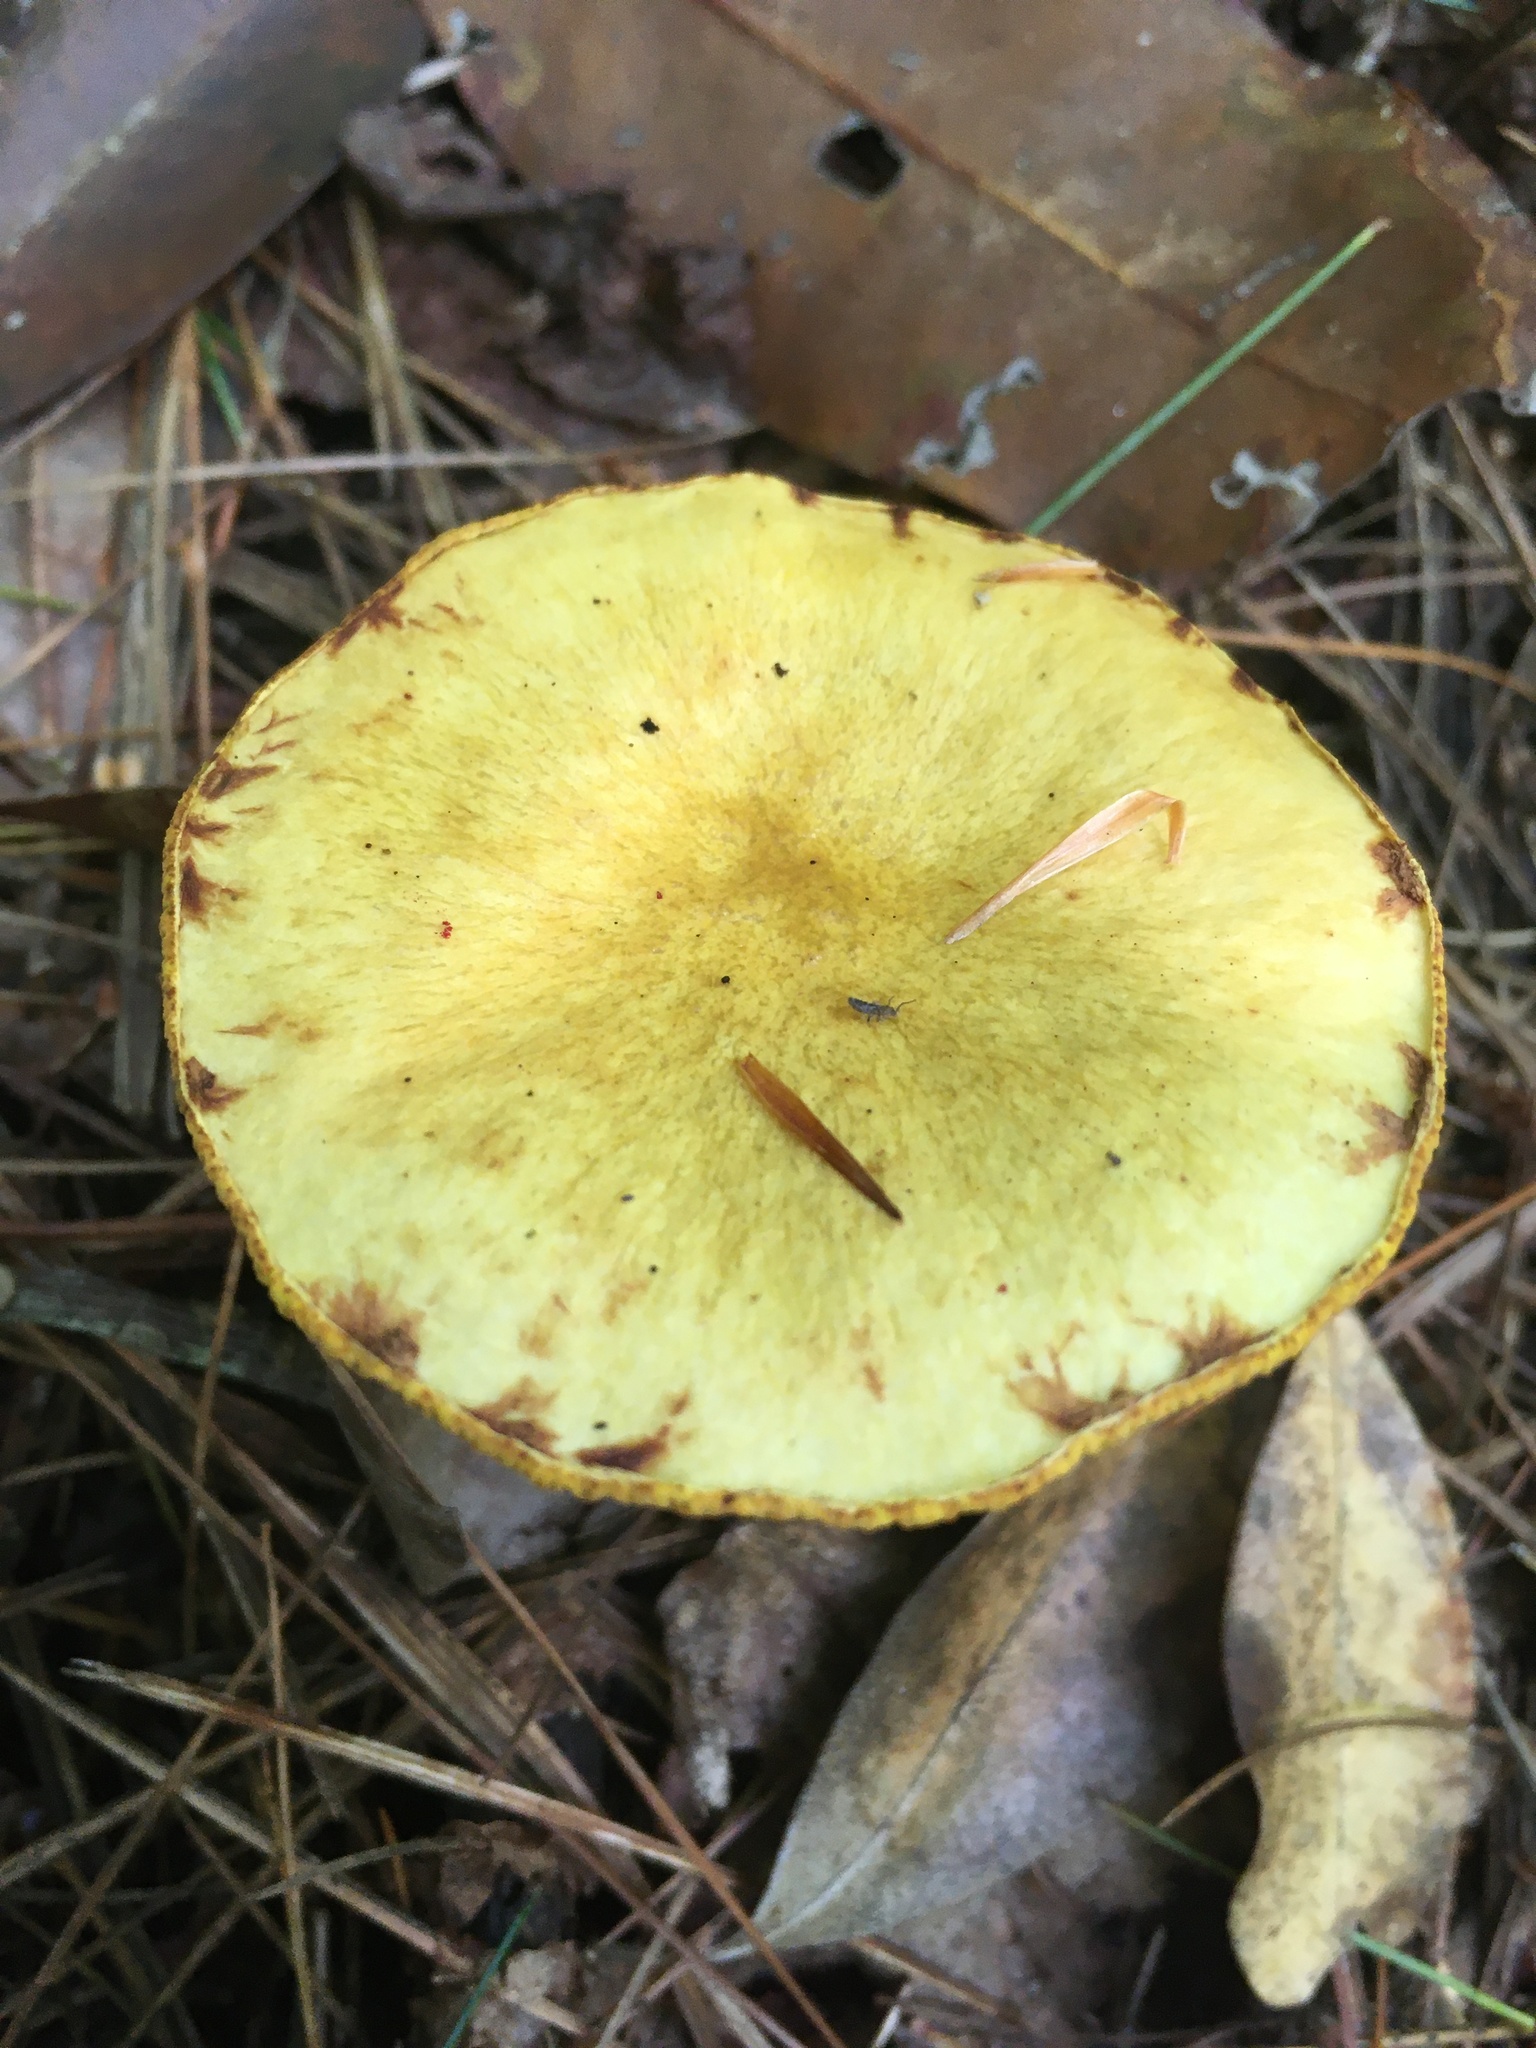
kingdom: Fungi
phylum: Basidiomycota
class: Agaricomycetes
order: Boletales
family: Suillaceae
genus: Suillus
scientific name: Suillus americanus
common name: Chicken fat mushroom
